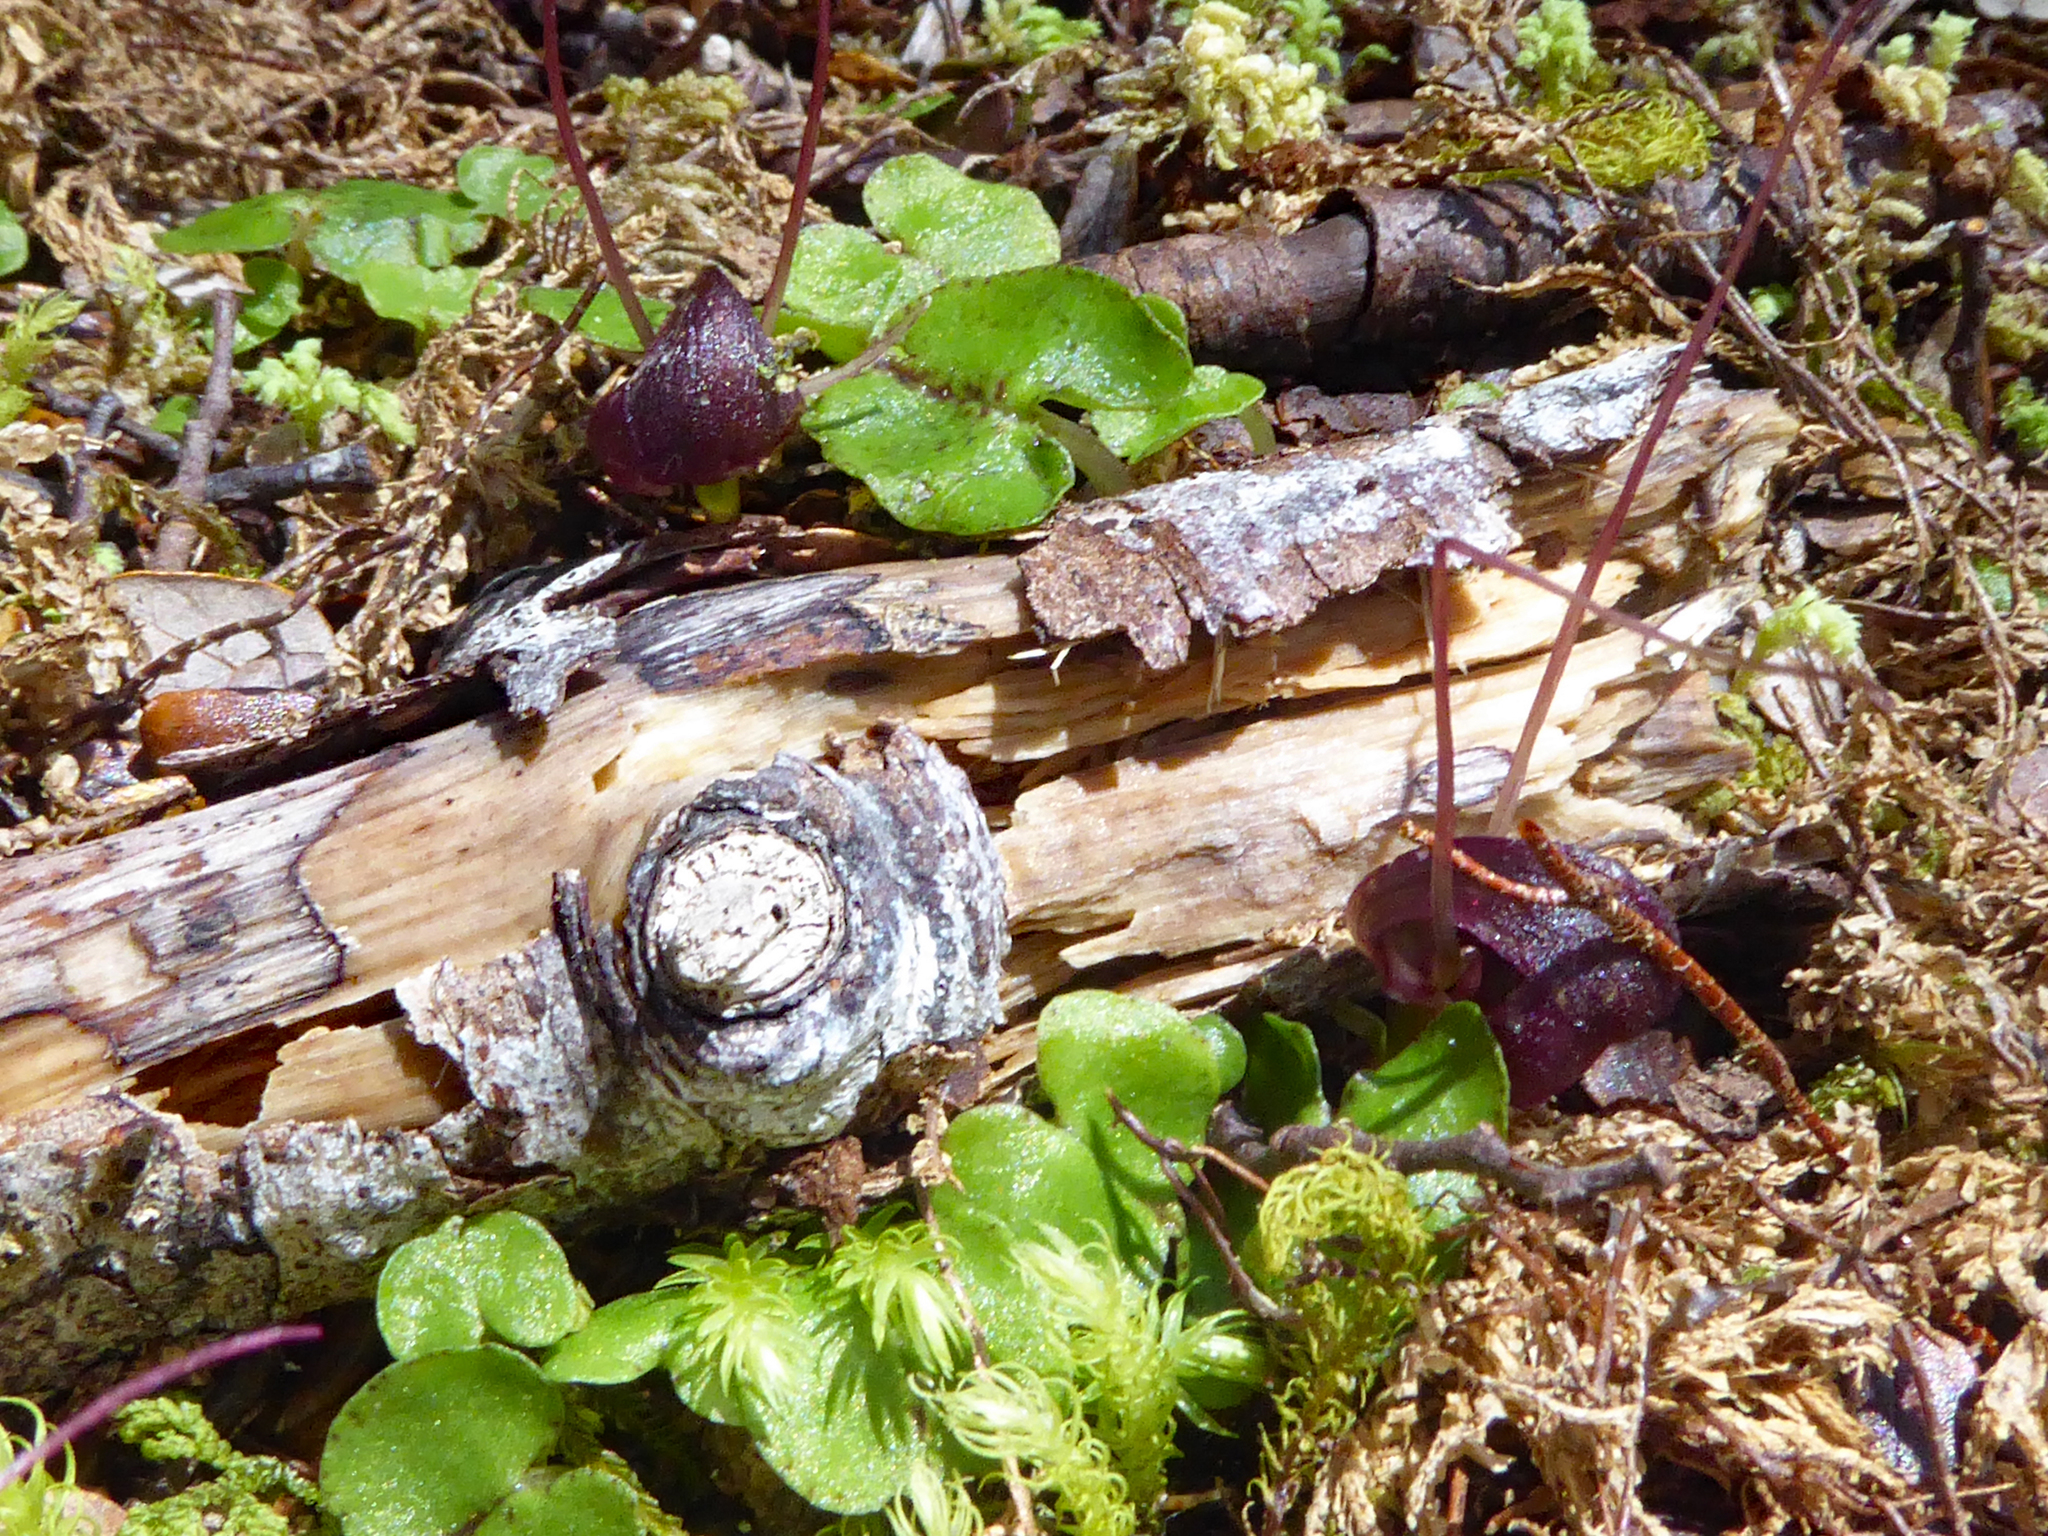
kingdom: Plantae
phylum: Tracheophyta
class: Liliopsida
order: Asparagales
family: Orchidaceae
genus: Corybas
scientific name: Corybas obscurus
